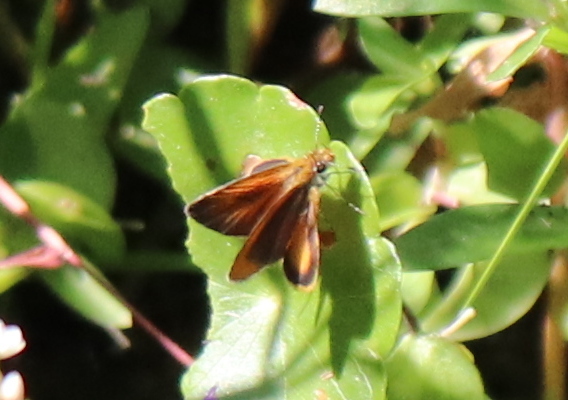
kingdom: Animalia
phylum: Arthropoda
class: Insecta
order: Lepidoptera
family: Hesperiidae
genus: Ancyloxypha
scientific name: Ancyloxypha numitor
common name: Least skipper
